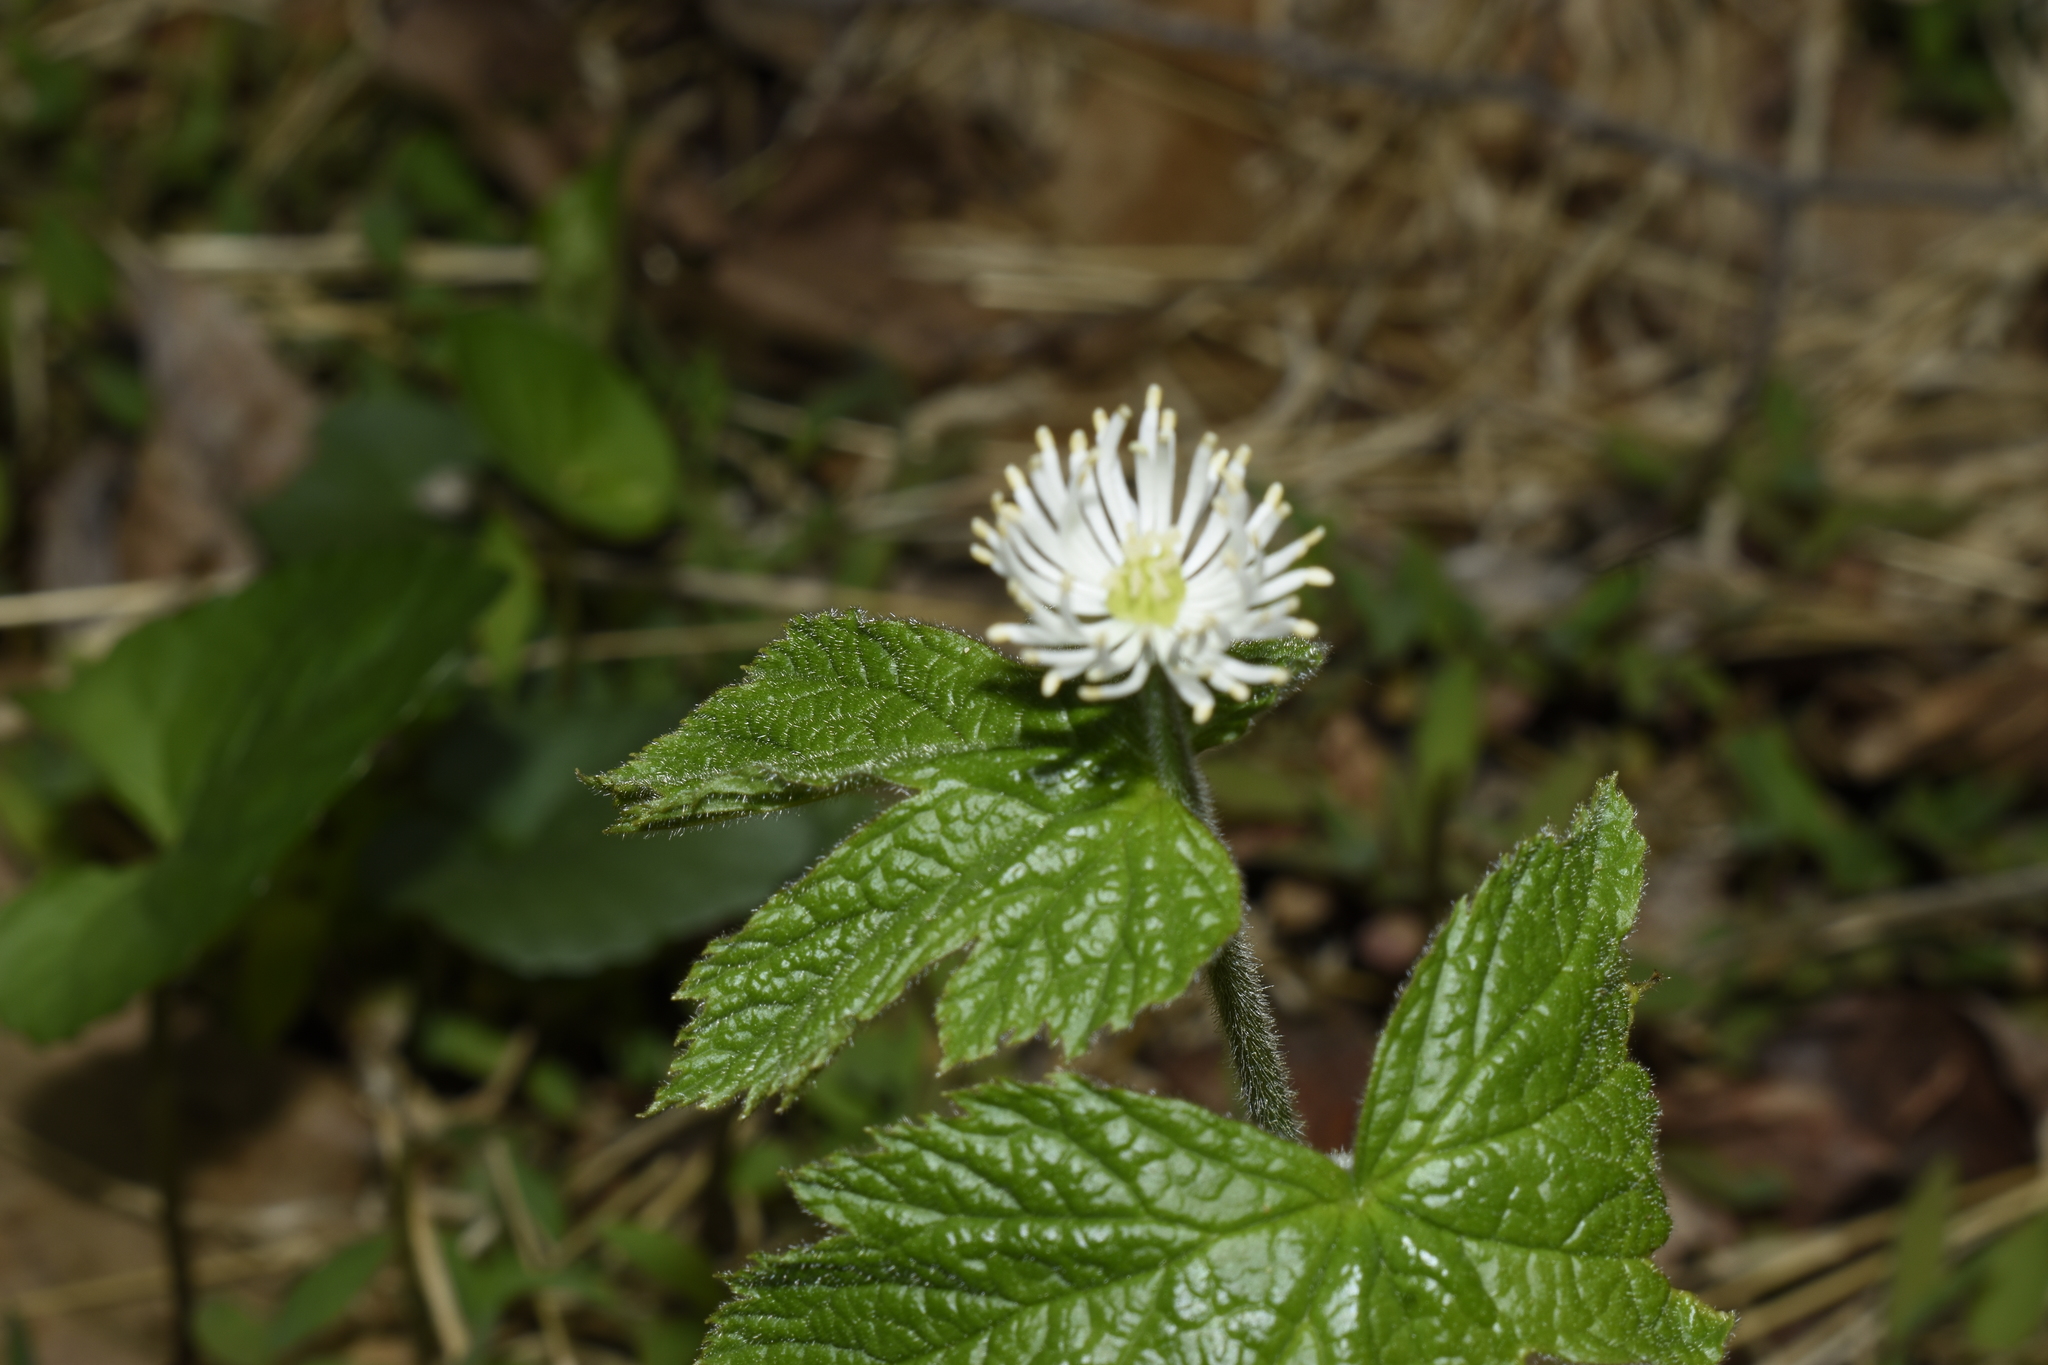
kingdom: Plantae
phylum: Tracheophyta
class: Magnoliopsida
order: Ranunculales
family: Ranunculaceae
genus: Hydrastis
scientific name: Hydrastis canadensis
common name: Goldenseal
